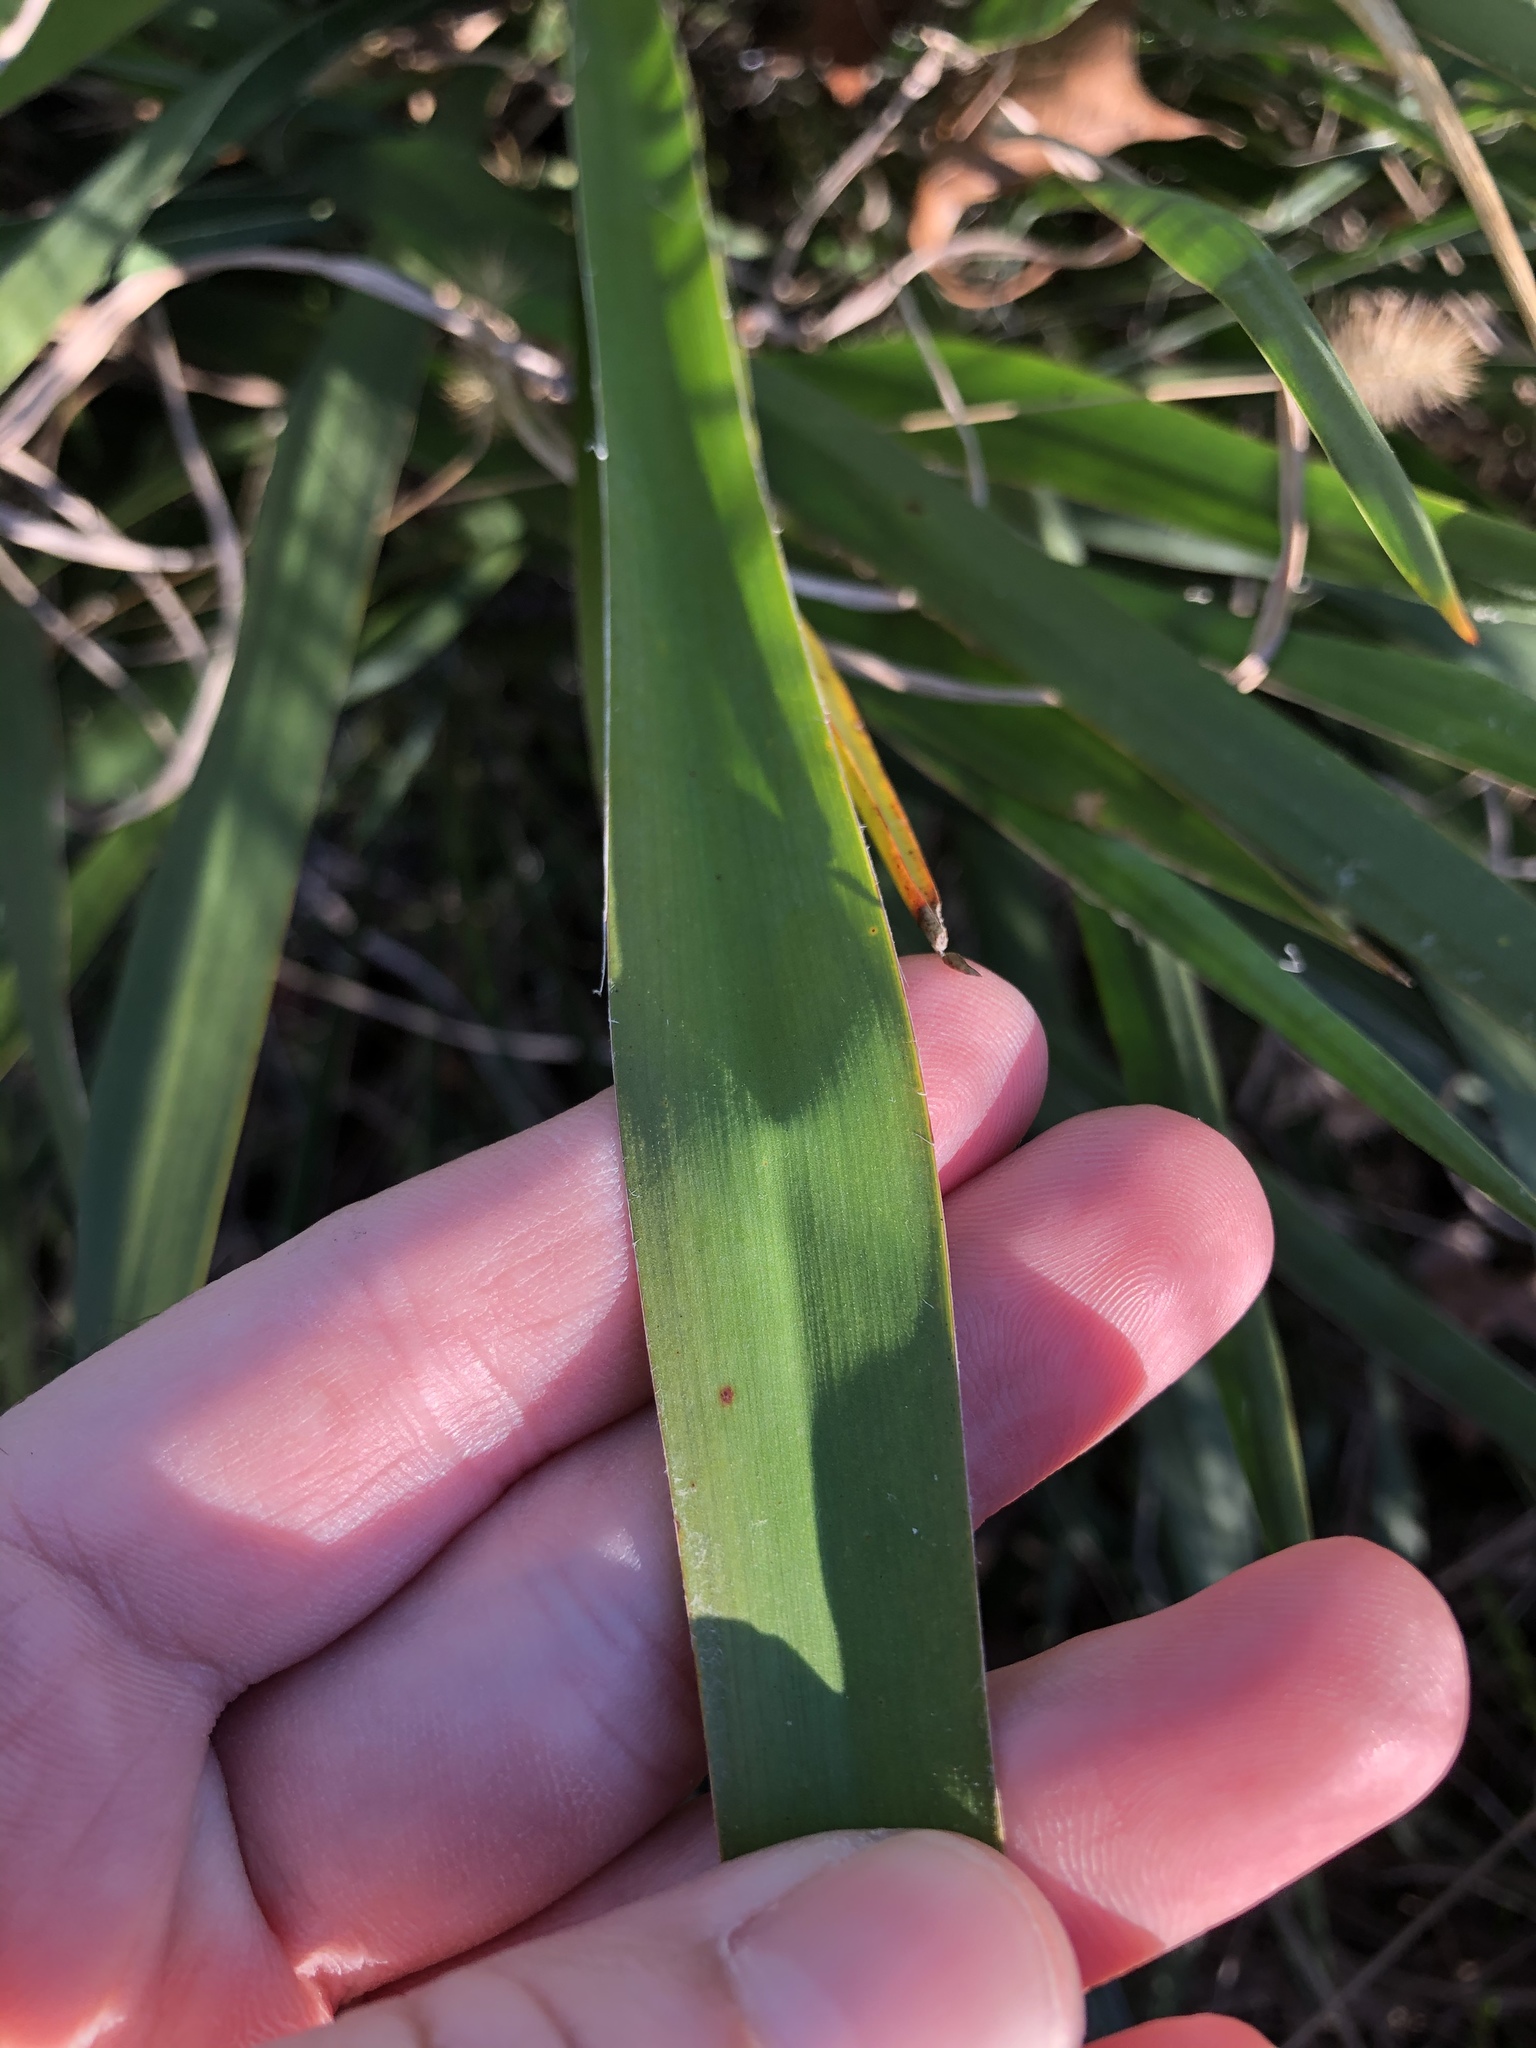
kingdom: Plantae
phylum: Tracheophyta
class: Liliopsida
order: Asparagales
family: Asparagaceae
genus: Yucca
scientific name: Yucca flaccida
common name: Adam's-needle
